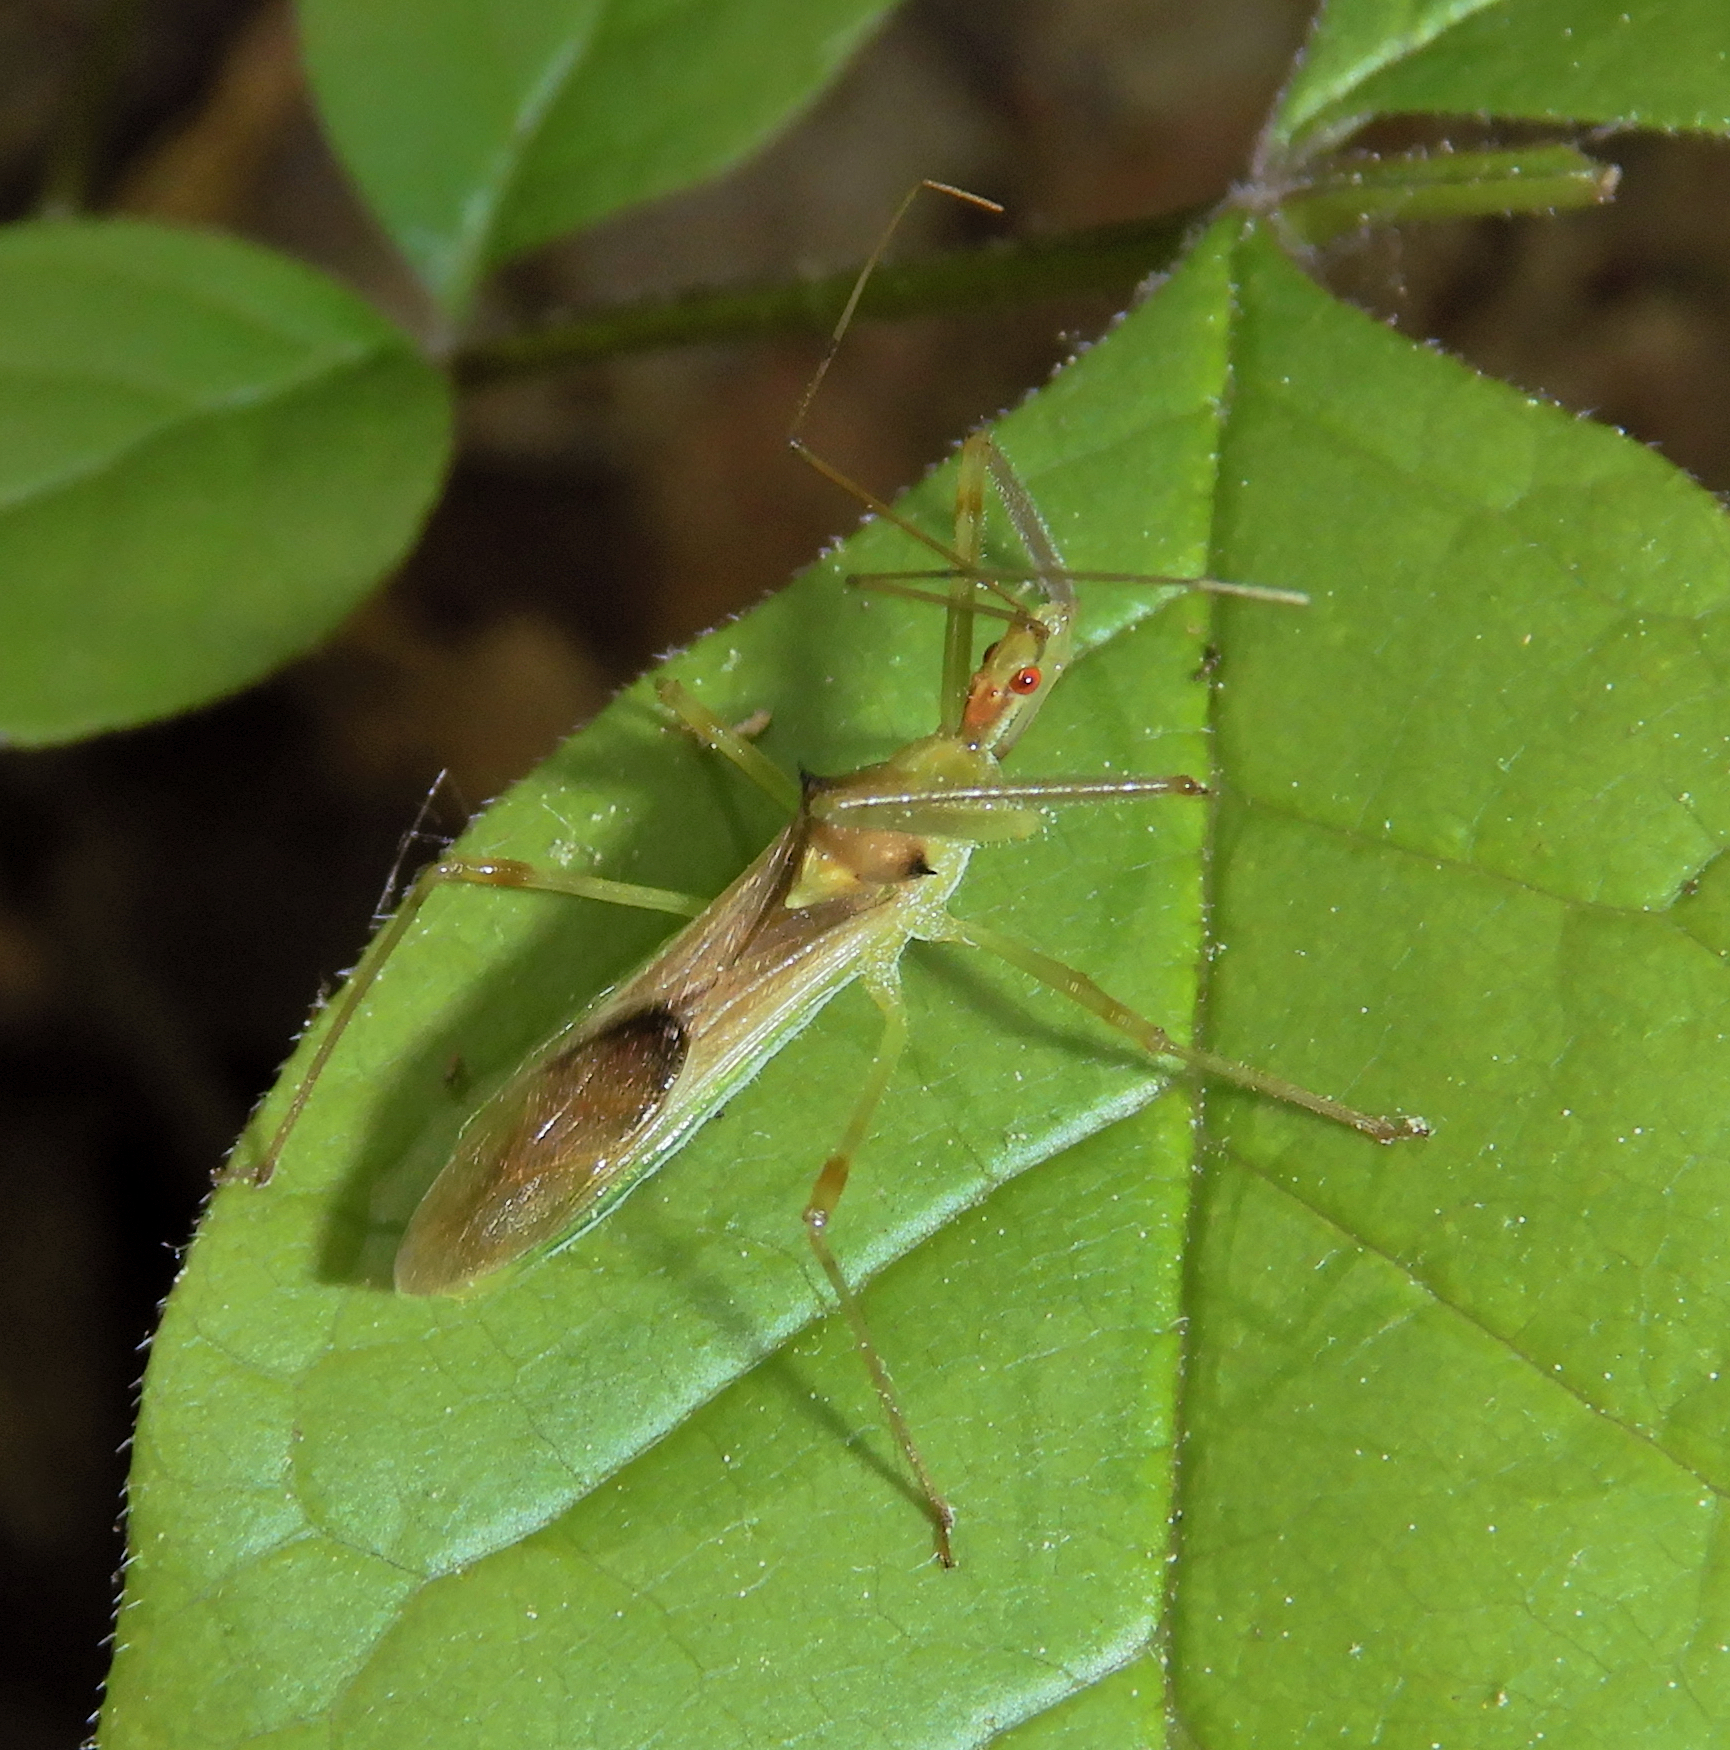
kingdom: Animalia
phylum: Arthropoda
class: Insecta
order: Hemiptera
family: Reduviidae
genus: Zelus
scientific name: Zelus luridus
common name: Pale green assassin bug
